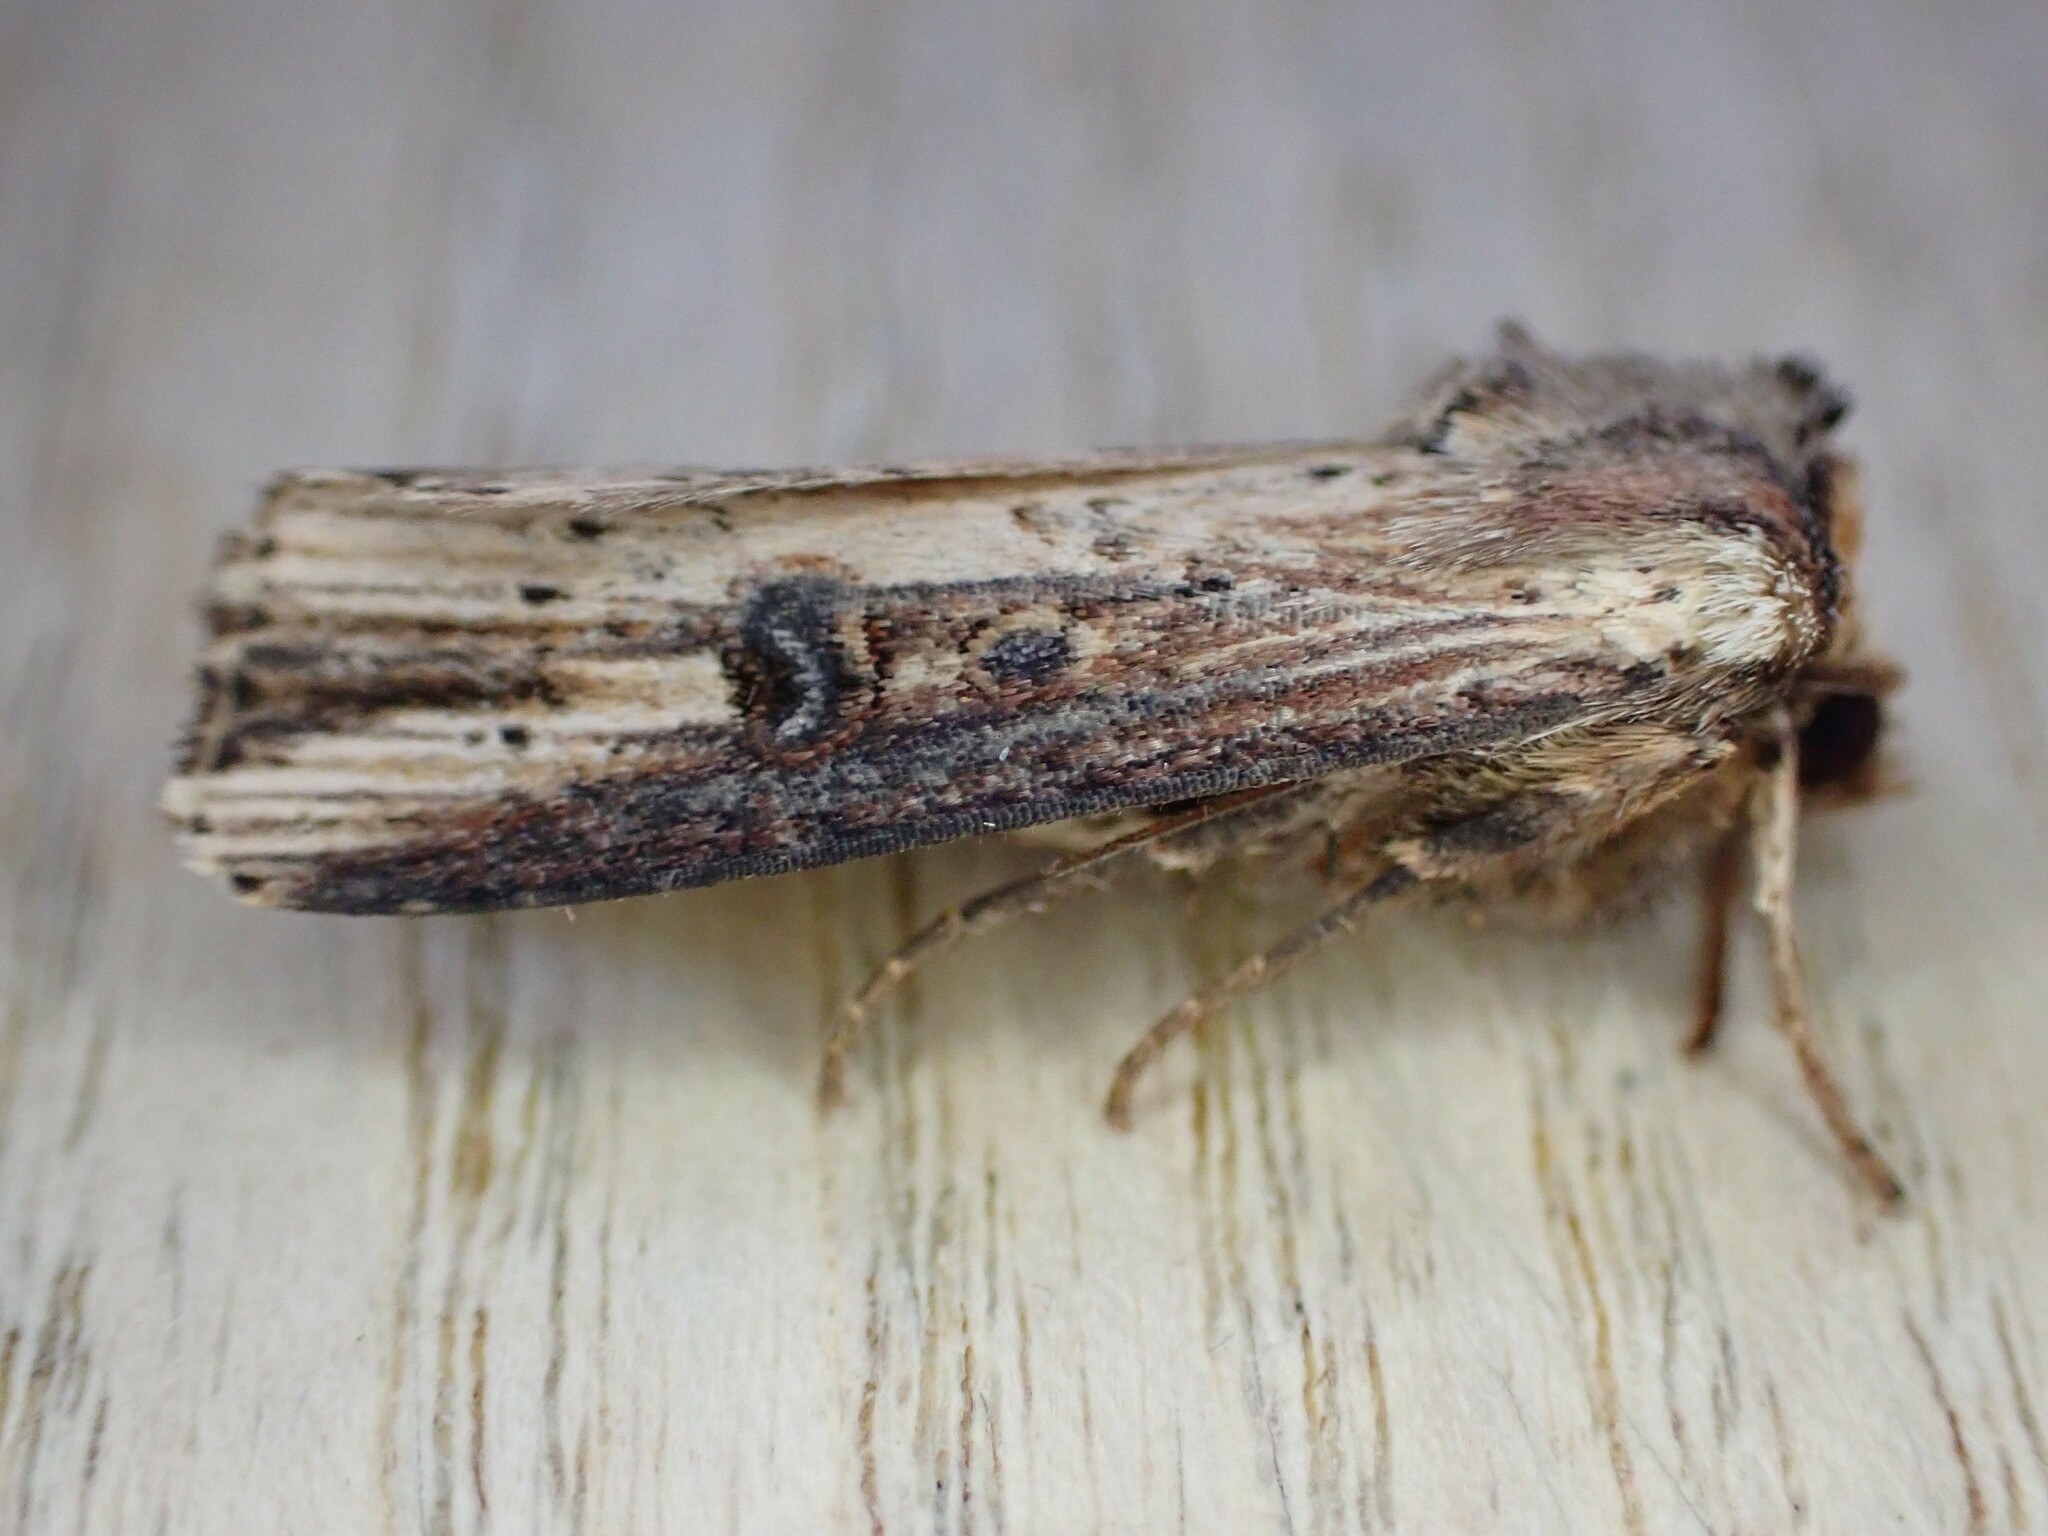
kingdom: Animalia
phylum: Arthropoda
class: Insecta
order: Lepidoptera
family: Noctuidae
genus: Axylia
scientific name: Axylia putris
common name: Flame
